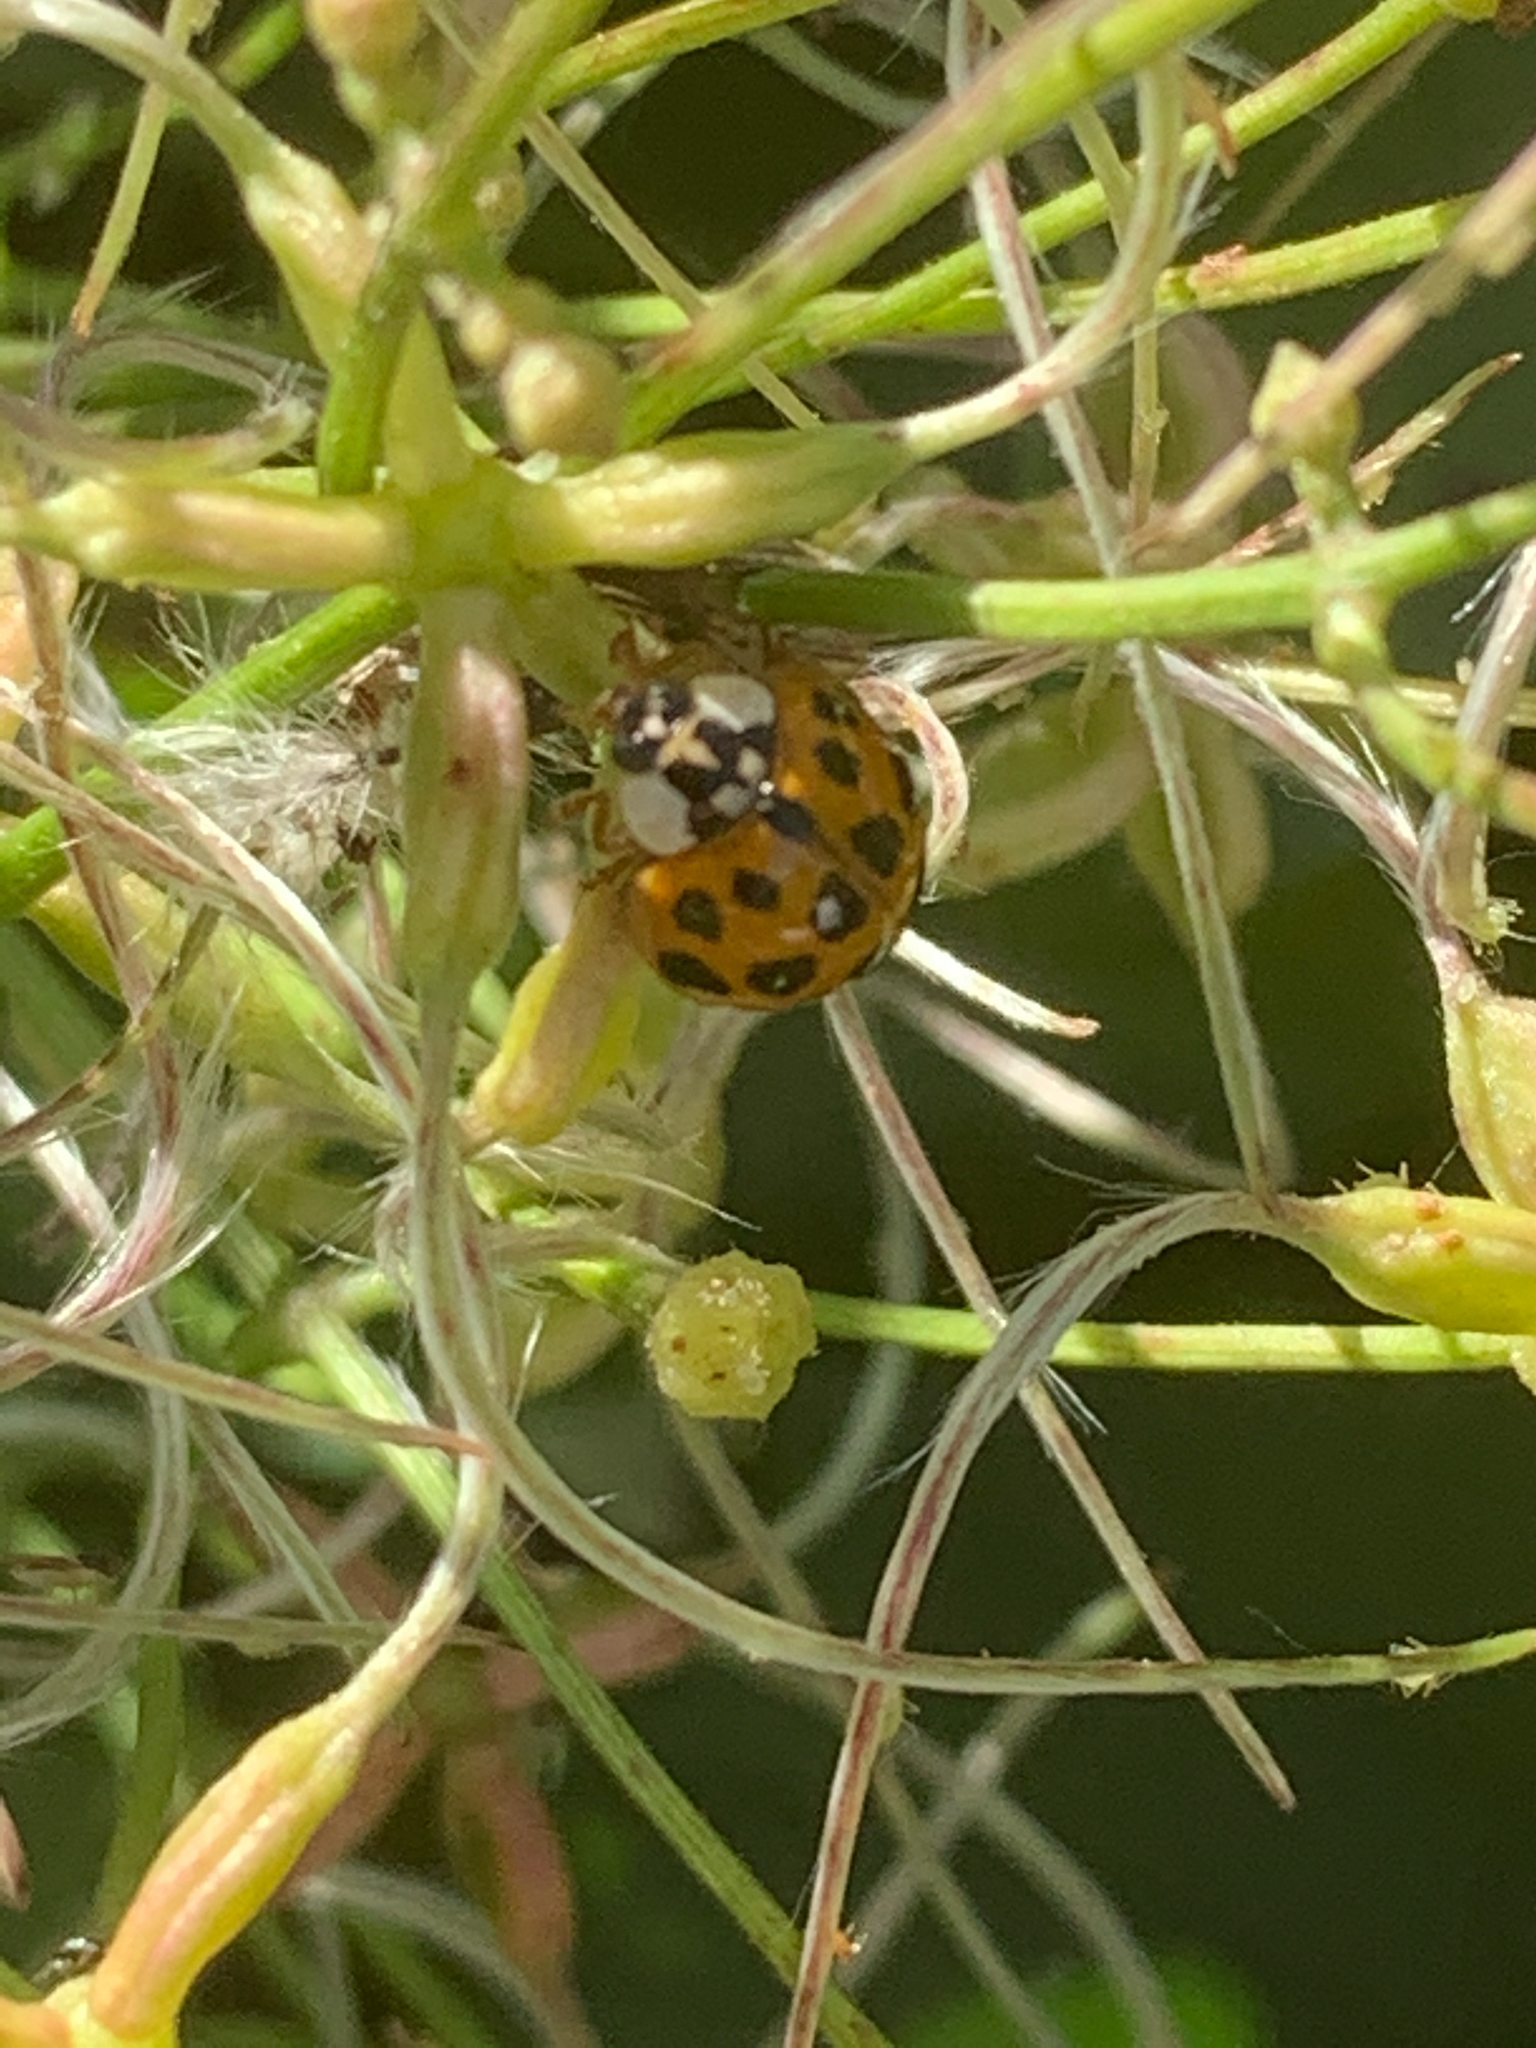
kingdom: Animalia
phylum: Arthropoda
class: Insecta
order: Coleoptera
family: Coccinellidae
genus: Harmonia
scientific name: Harmonia axyridis
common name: Harlequin ladybird
